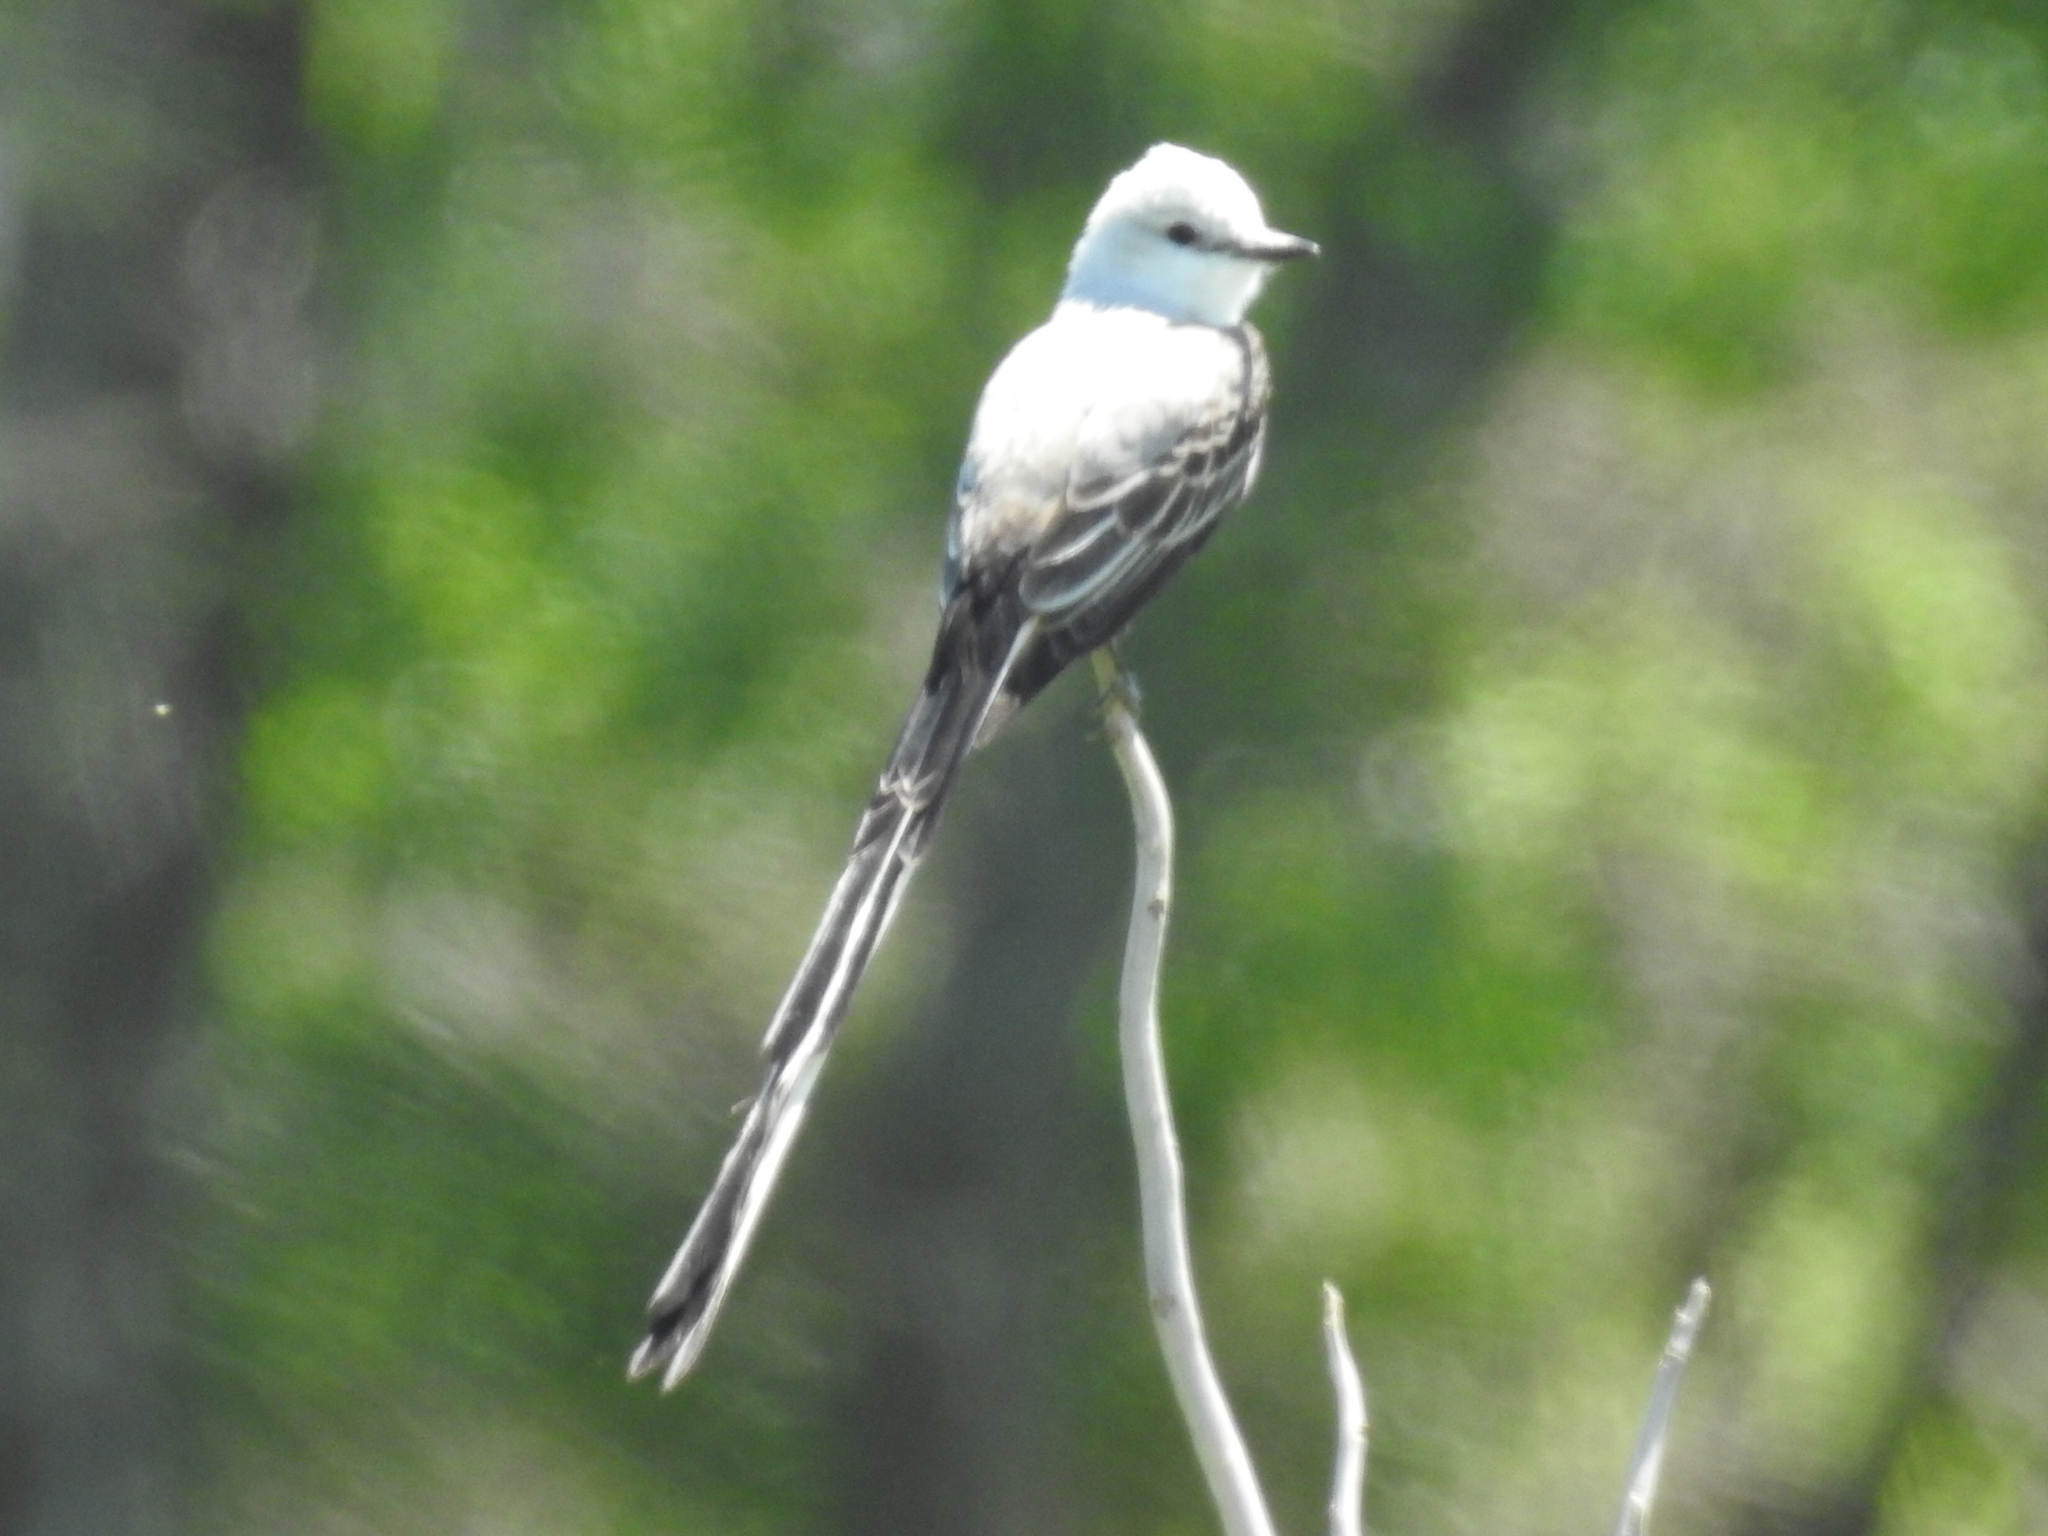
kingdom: Animalia
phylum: Chordata
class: Aves
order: Passeriformes
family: Tyrannidae
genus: Tyrannus
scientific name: Tyrannus forficatus
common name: Scissor-tailed flycatcher
